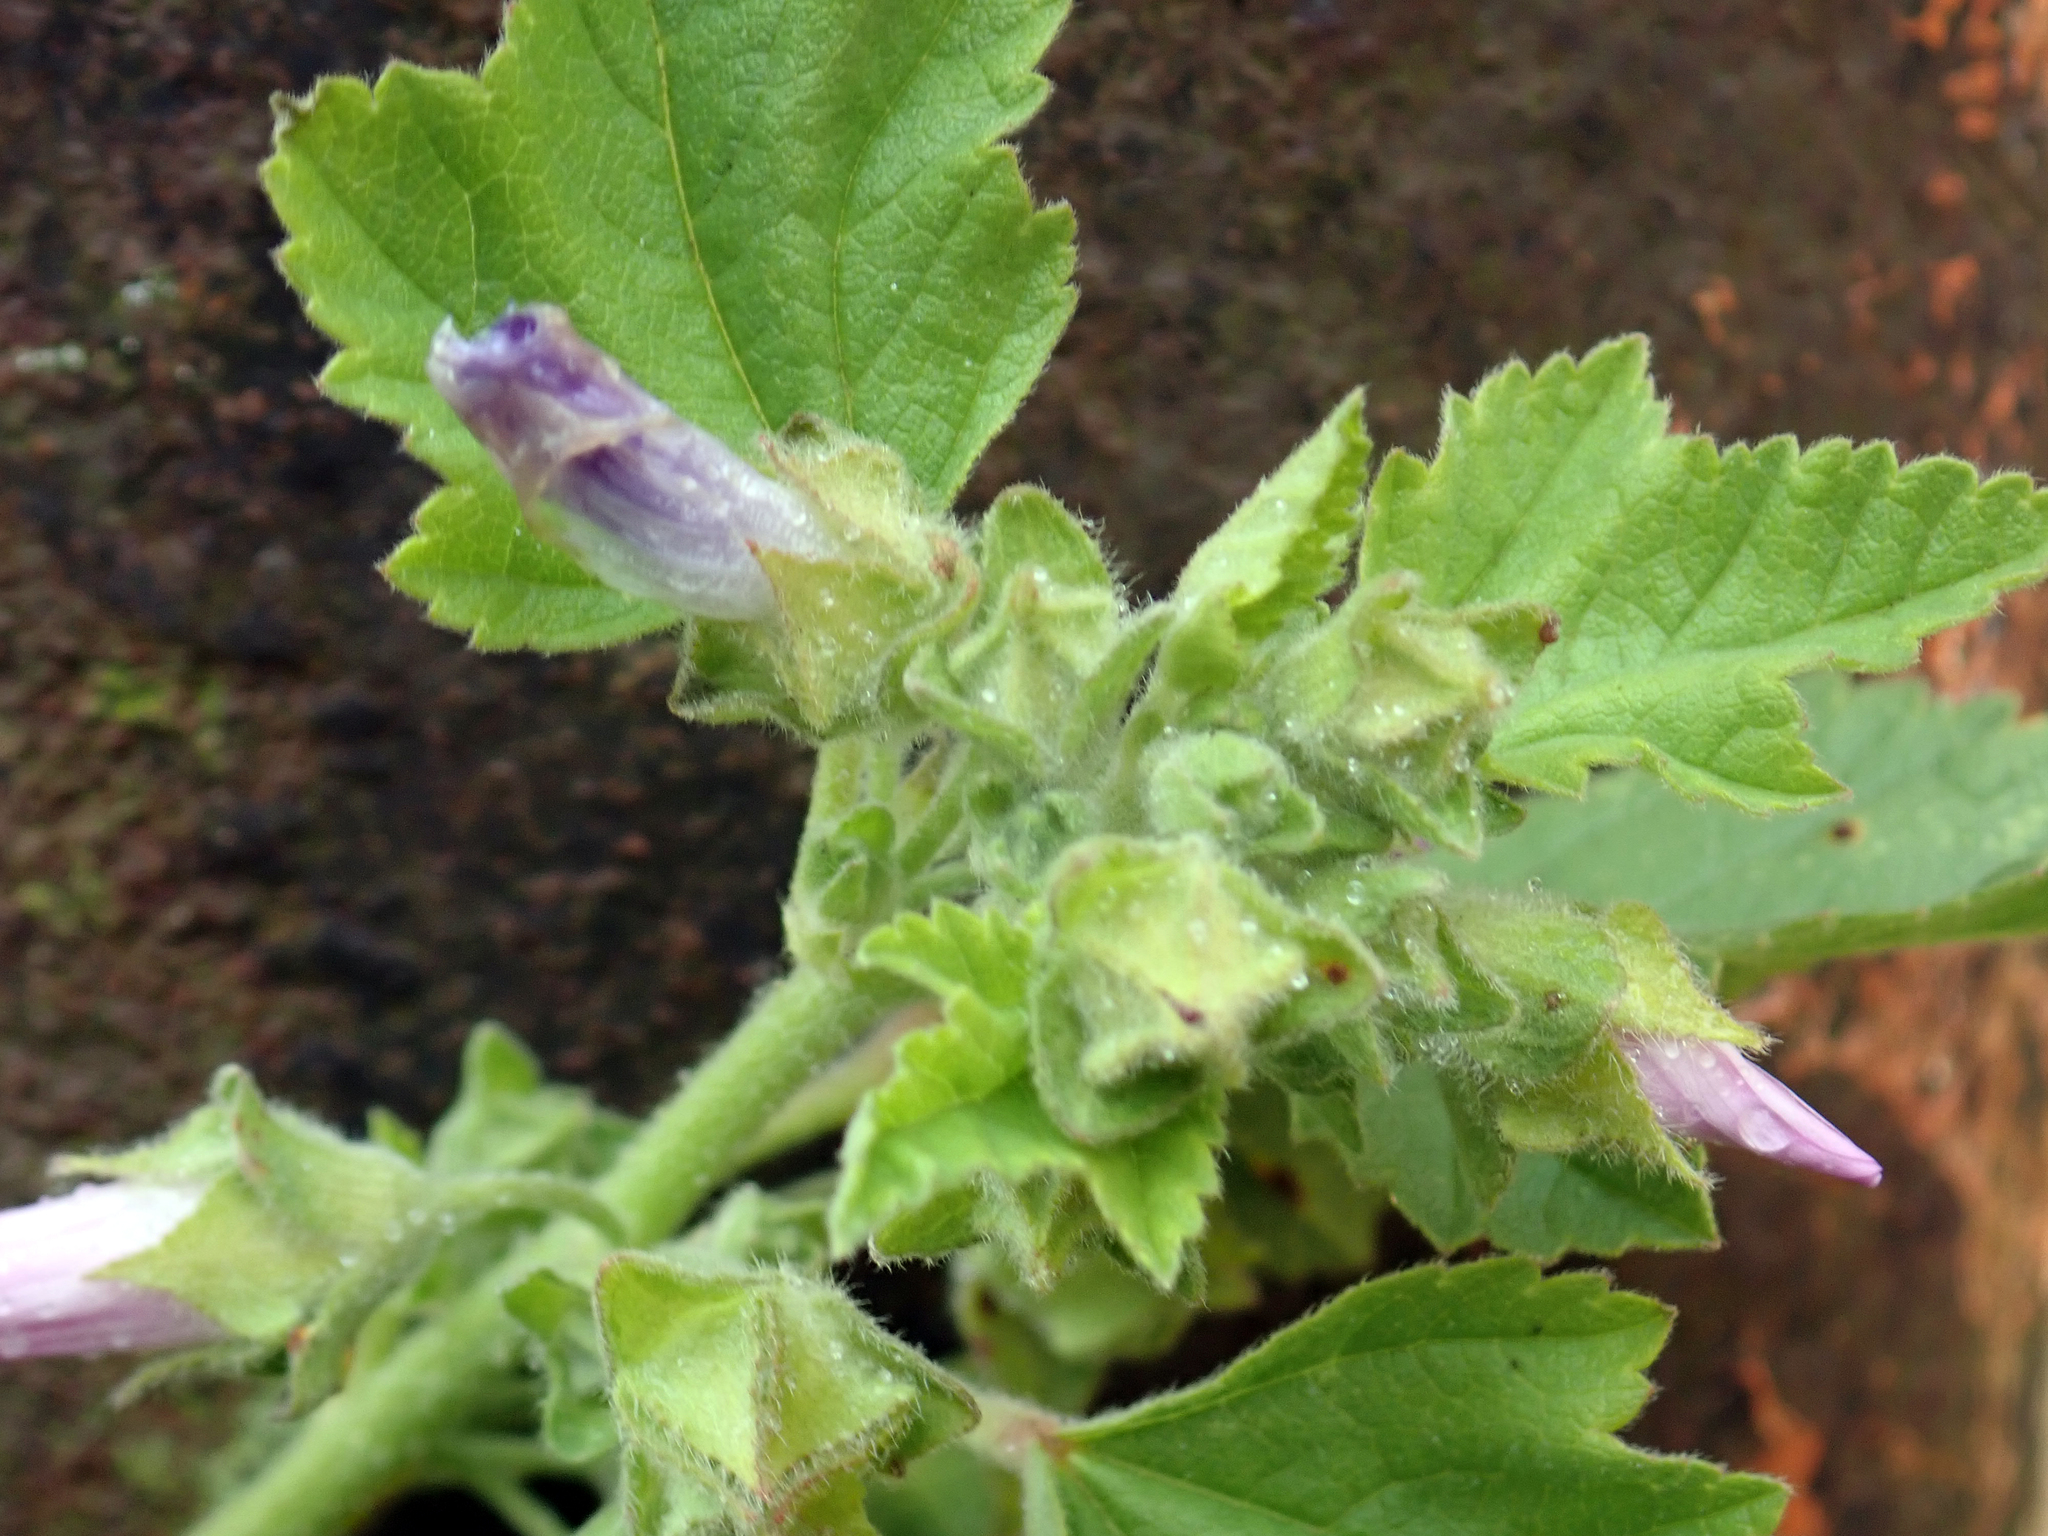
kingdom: Plantae
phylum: Tracheophyta
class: Magnoliopsida
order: Malvales
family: Malvaceae
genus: Malva
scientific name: Malva multiflora
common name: Cheeseweed
